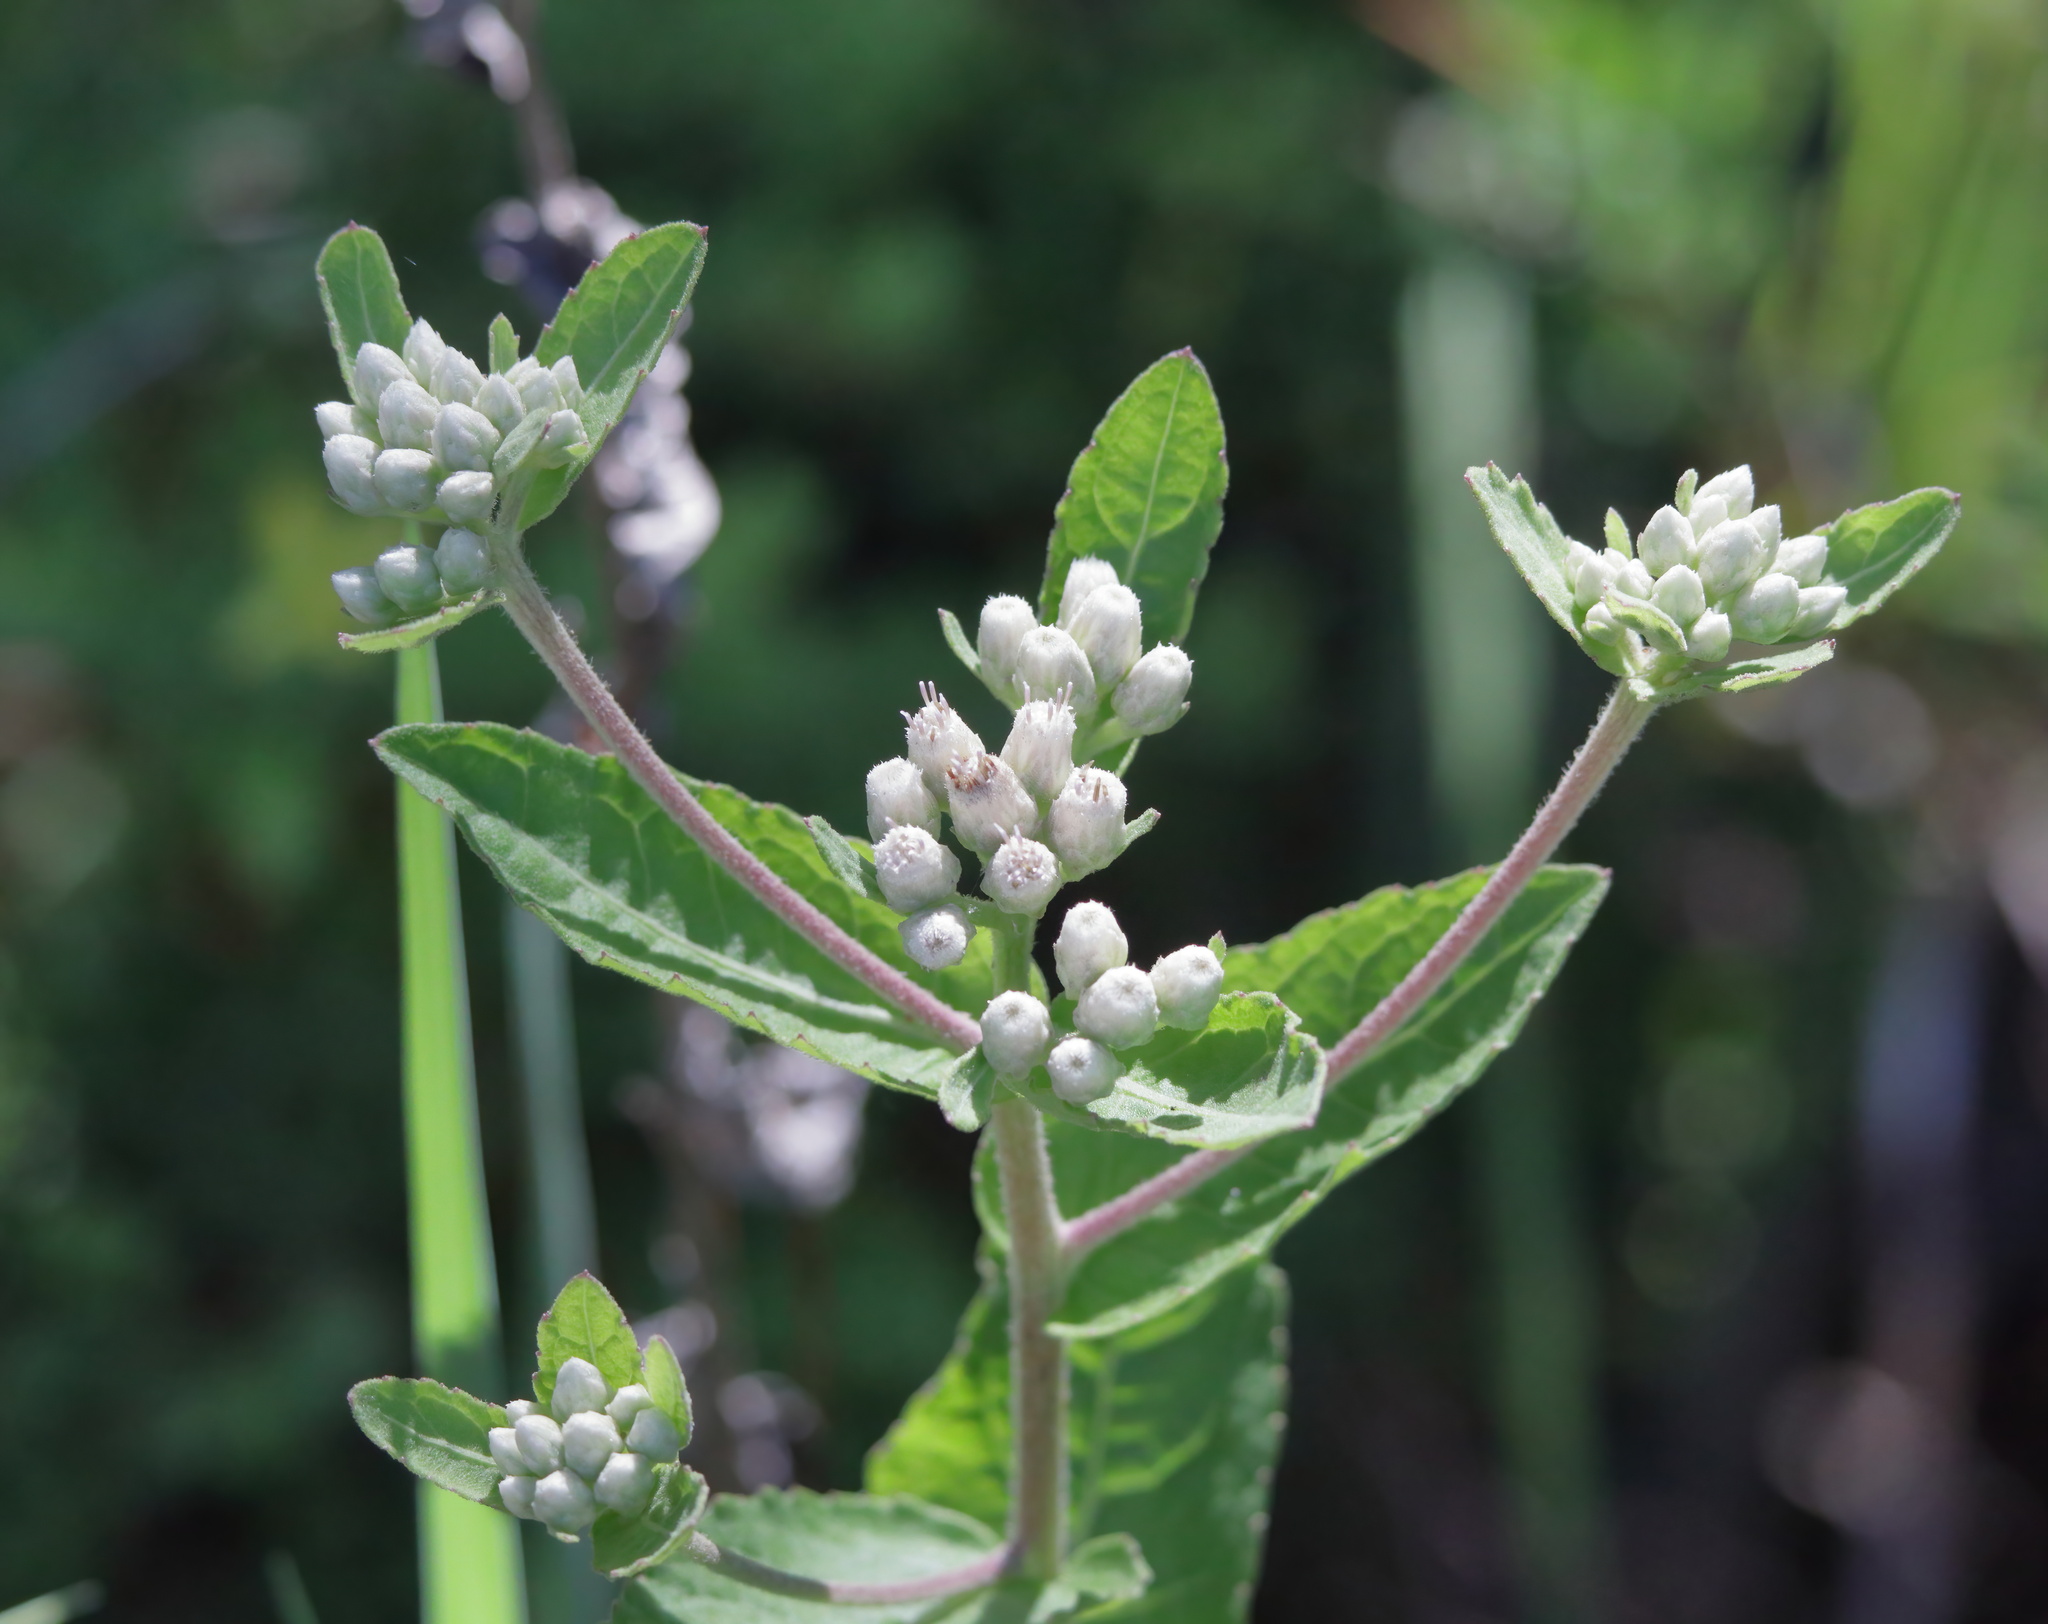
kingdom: Plantae
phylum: Tracheophyta
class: Magnoliopsida
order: Asterales
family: Asteraceae
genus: Pluchea
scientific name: Pluchea foetida
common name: Stinking camphorweed
